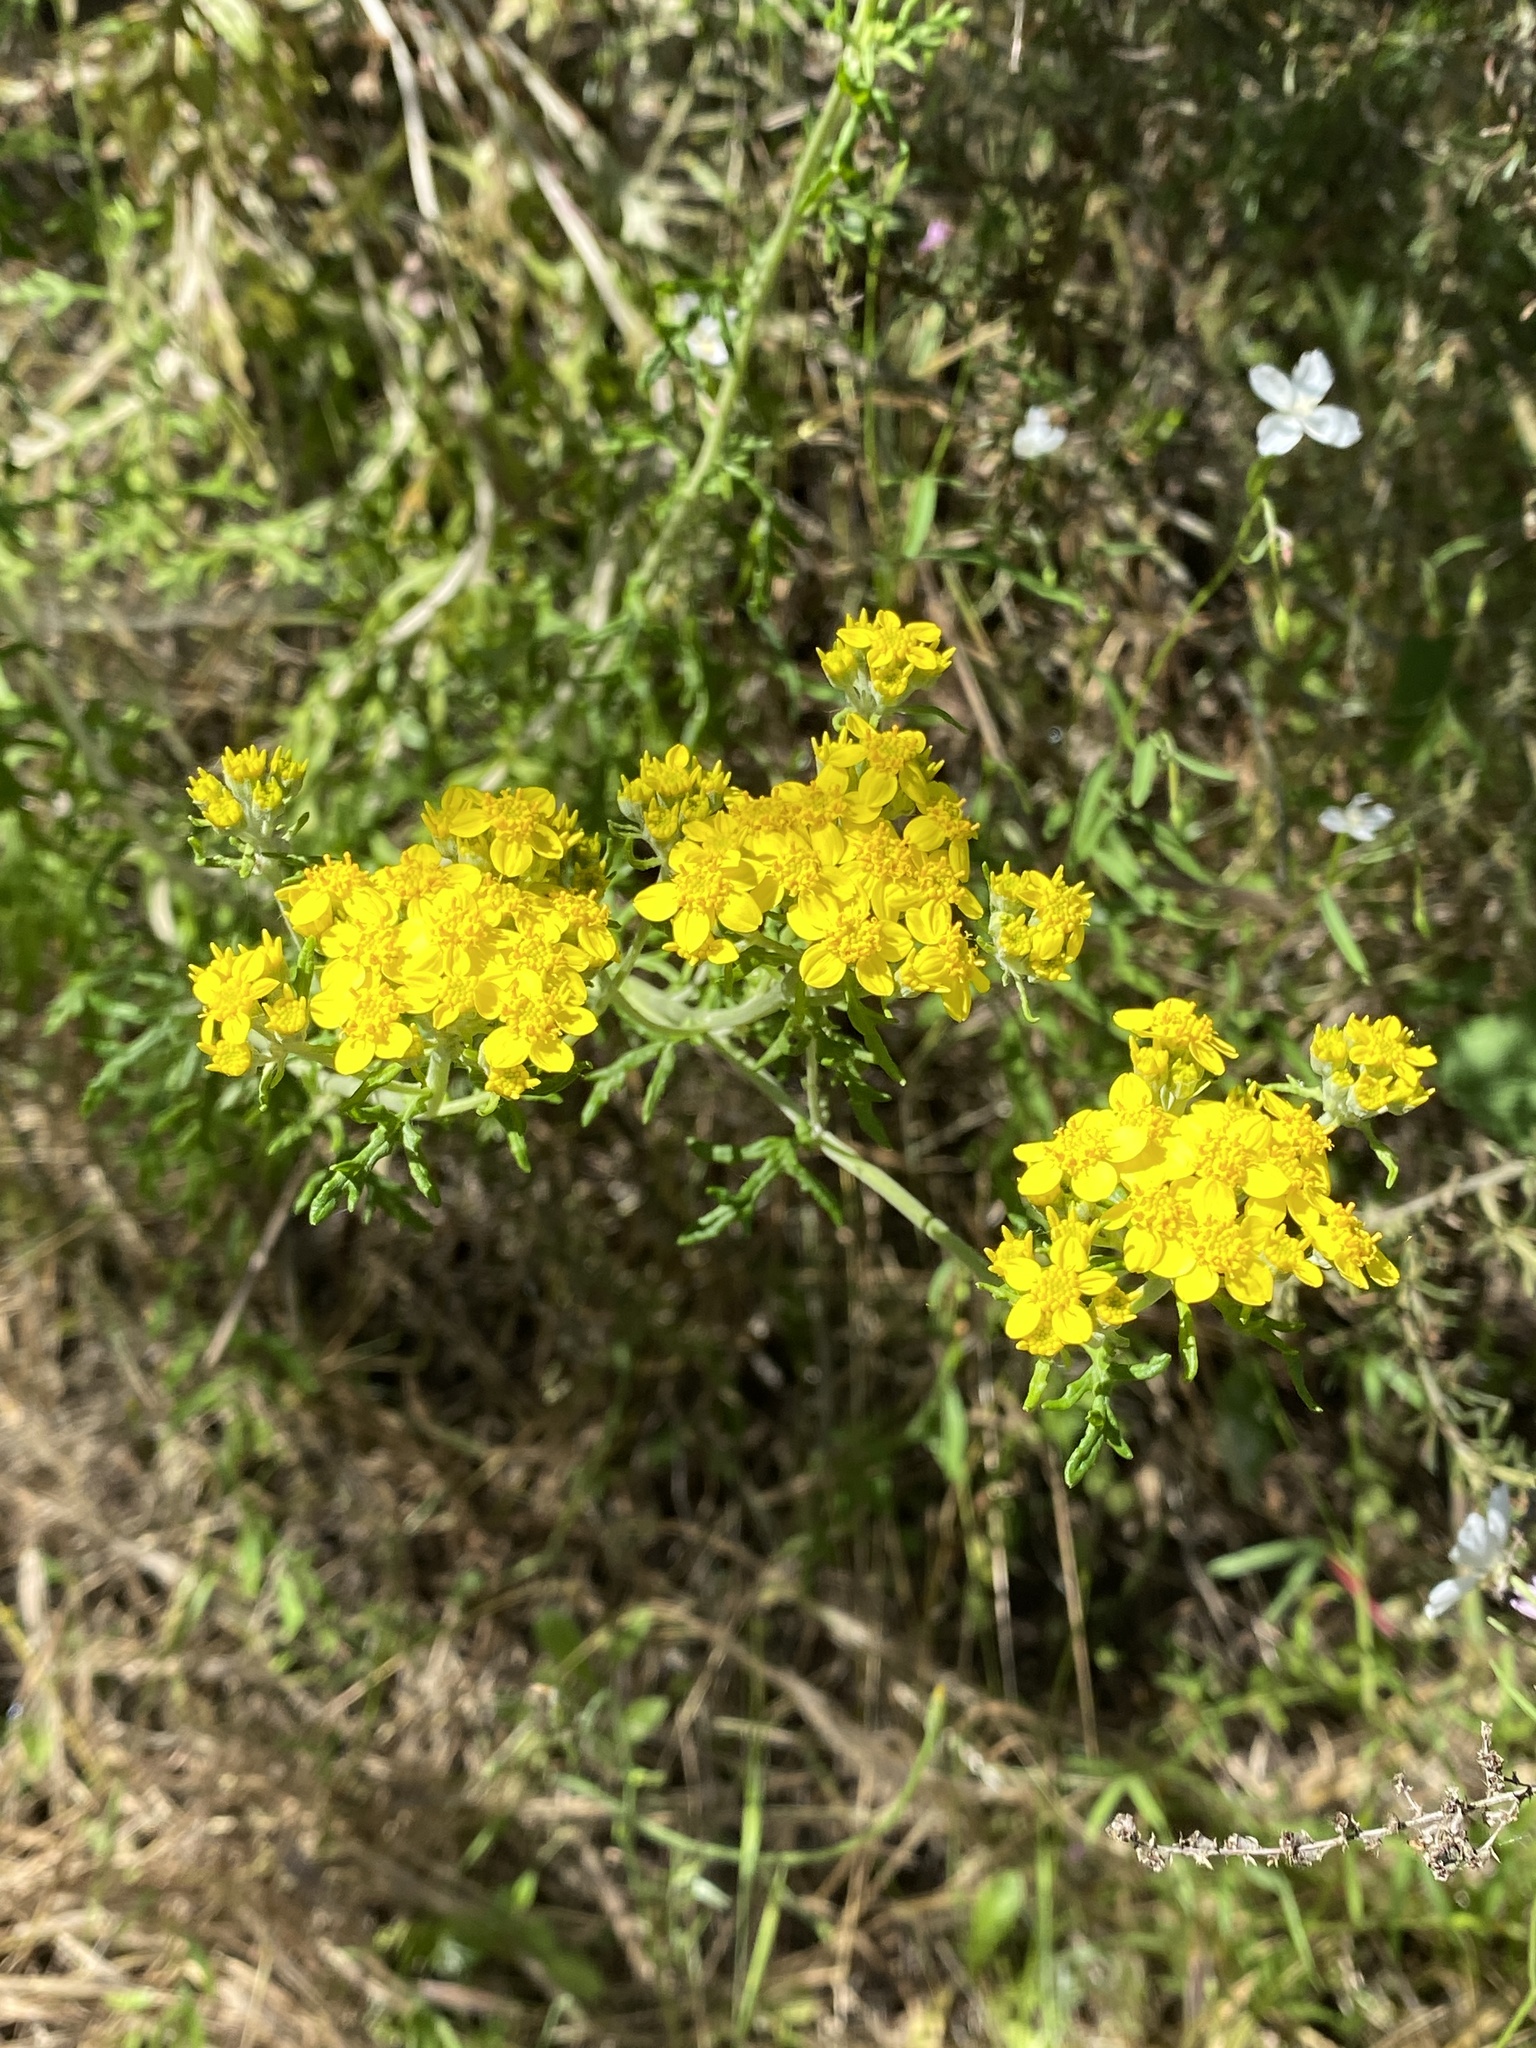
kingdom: Plantae
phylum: Tracheophyta
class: Magnoliopsida
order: Asterales
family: Asteraceae
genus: Eriophyllum
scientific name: Eriophyllum confertiflorum
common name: Golden-yarrow
